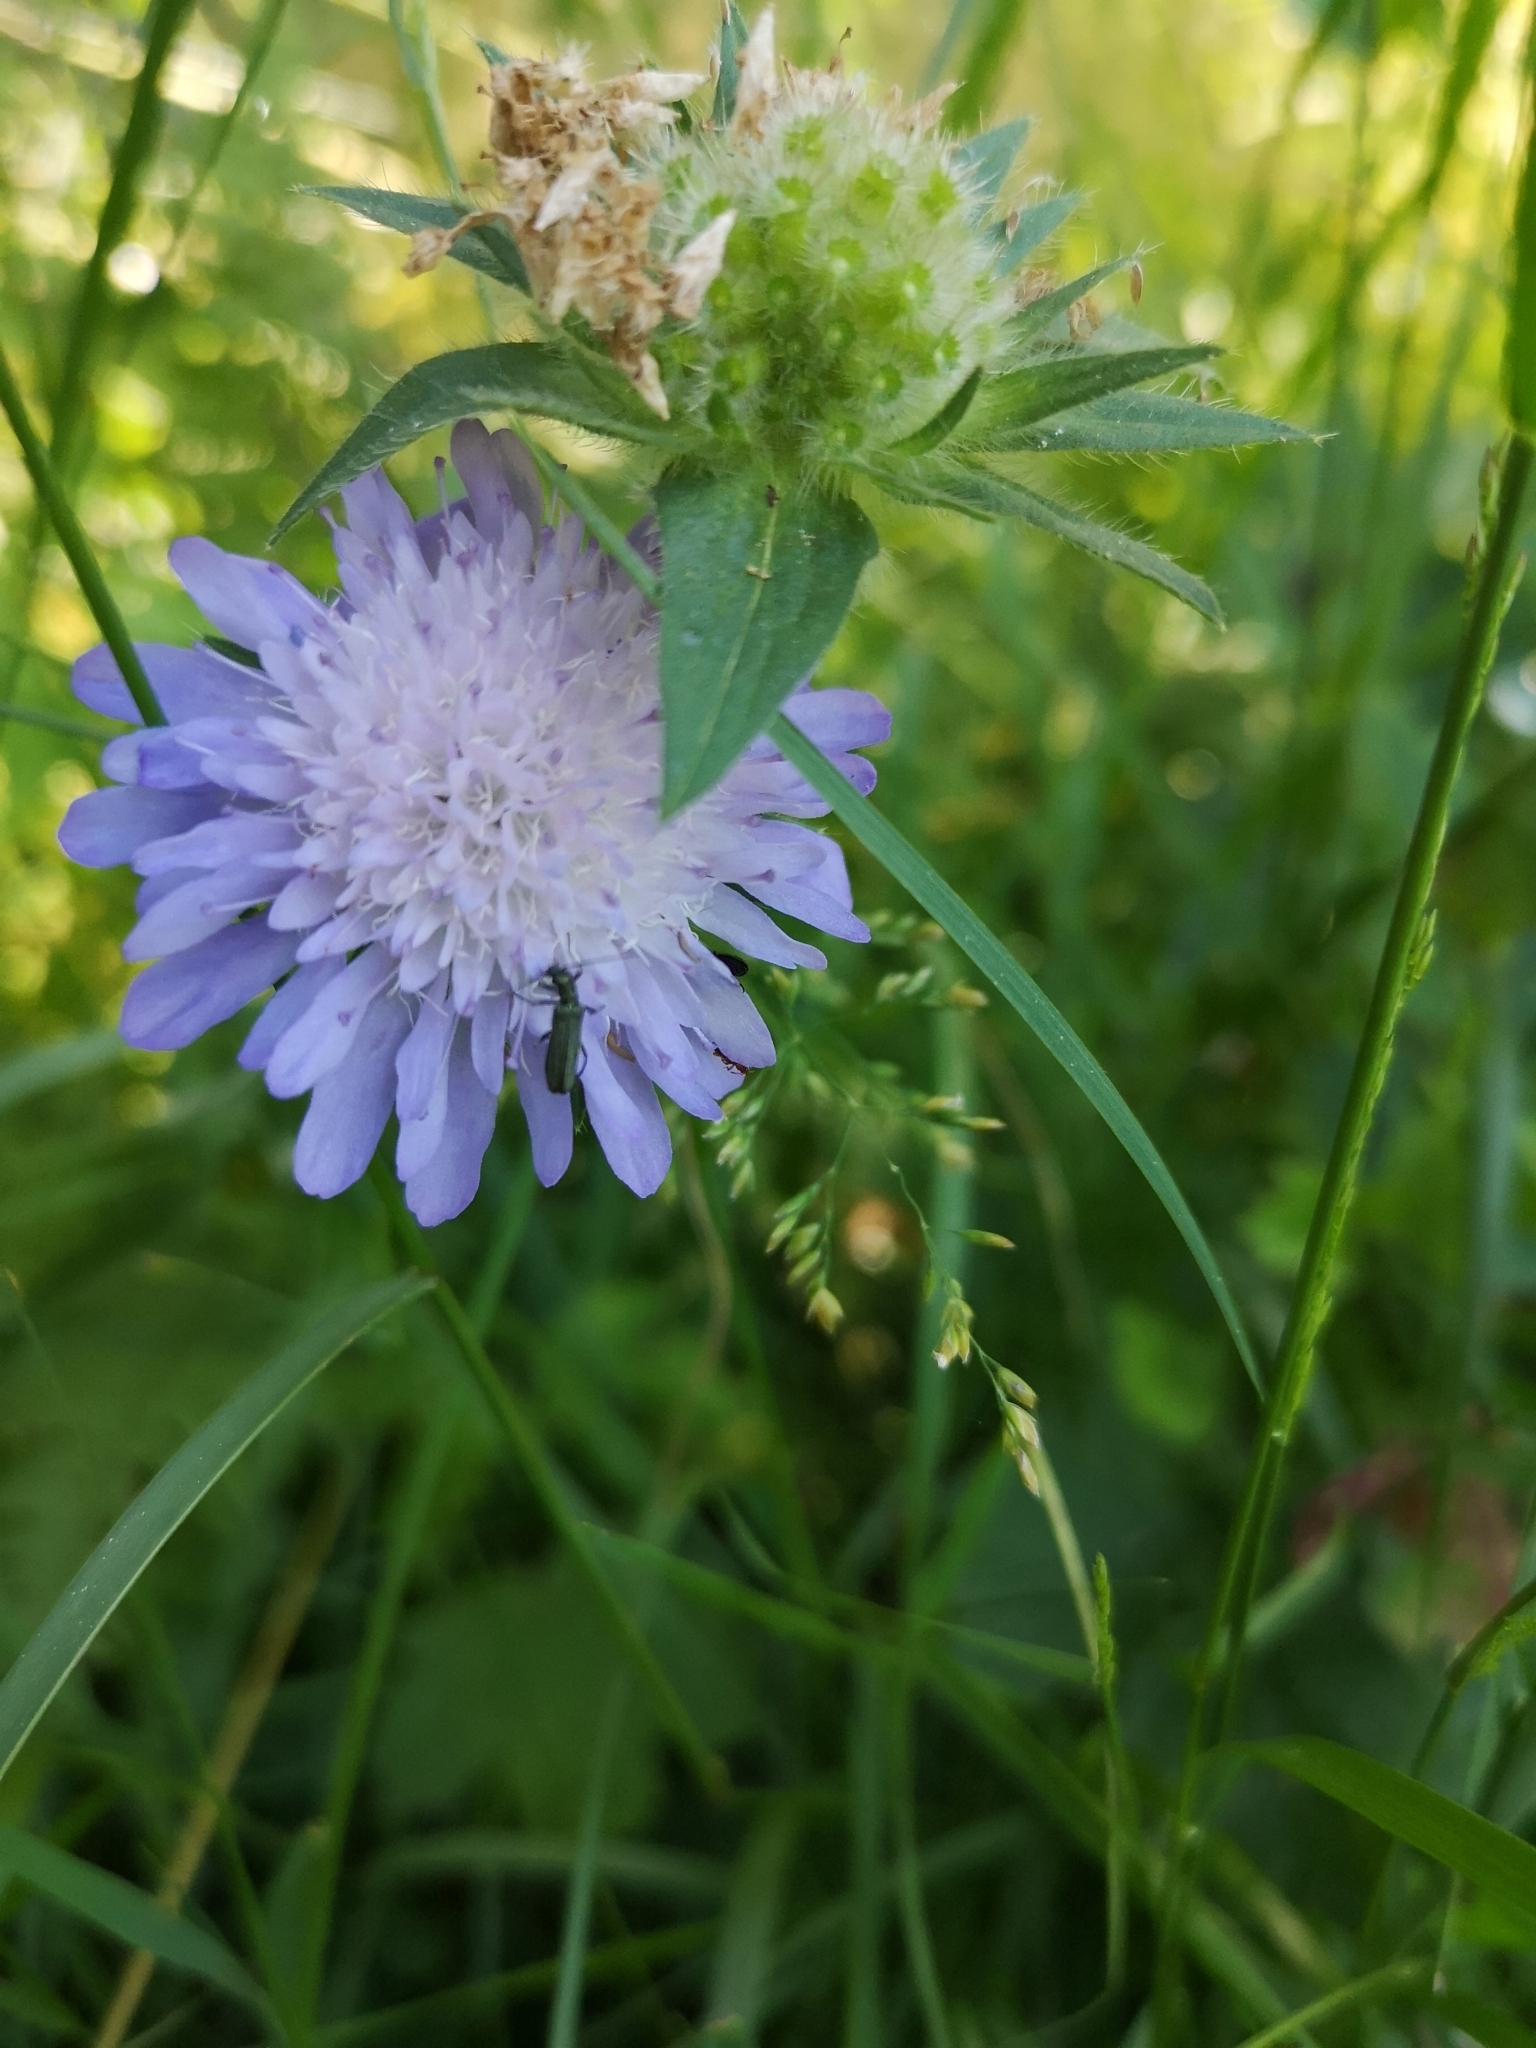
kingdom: Plantae
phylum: Tracheophyta
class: Magnoliopsida
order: Dipsacales
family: Caprifoliaceae
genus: Knautia
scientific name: Knautia arvensis
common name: Field scabiosa
